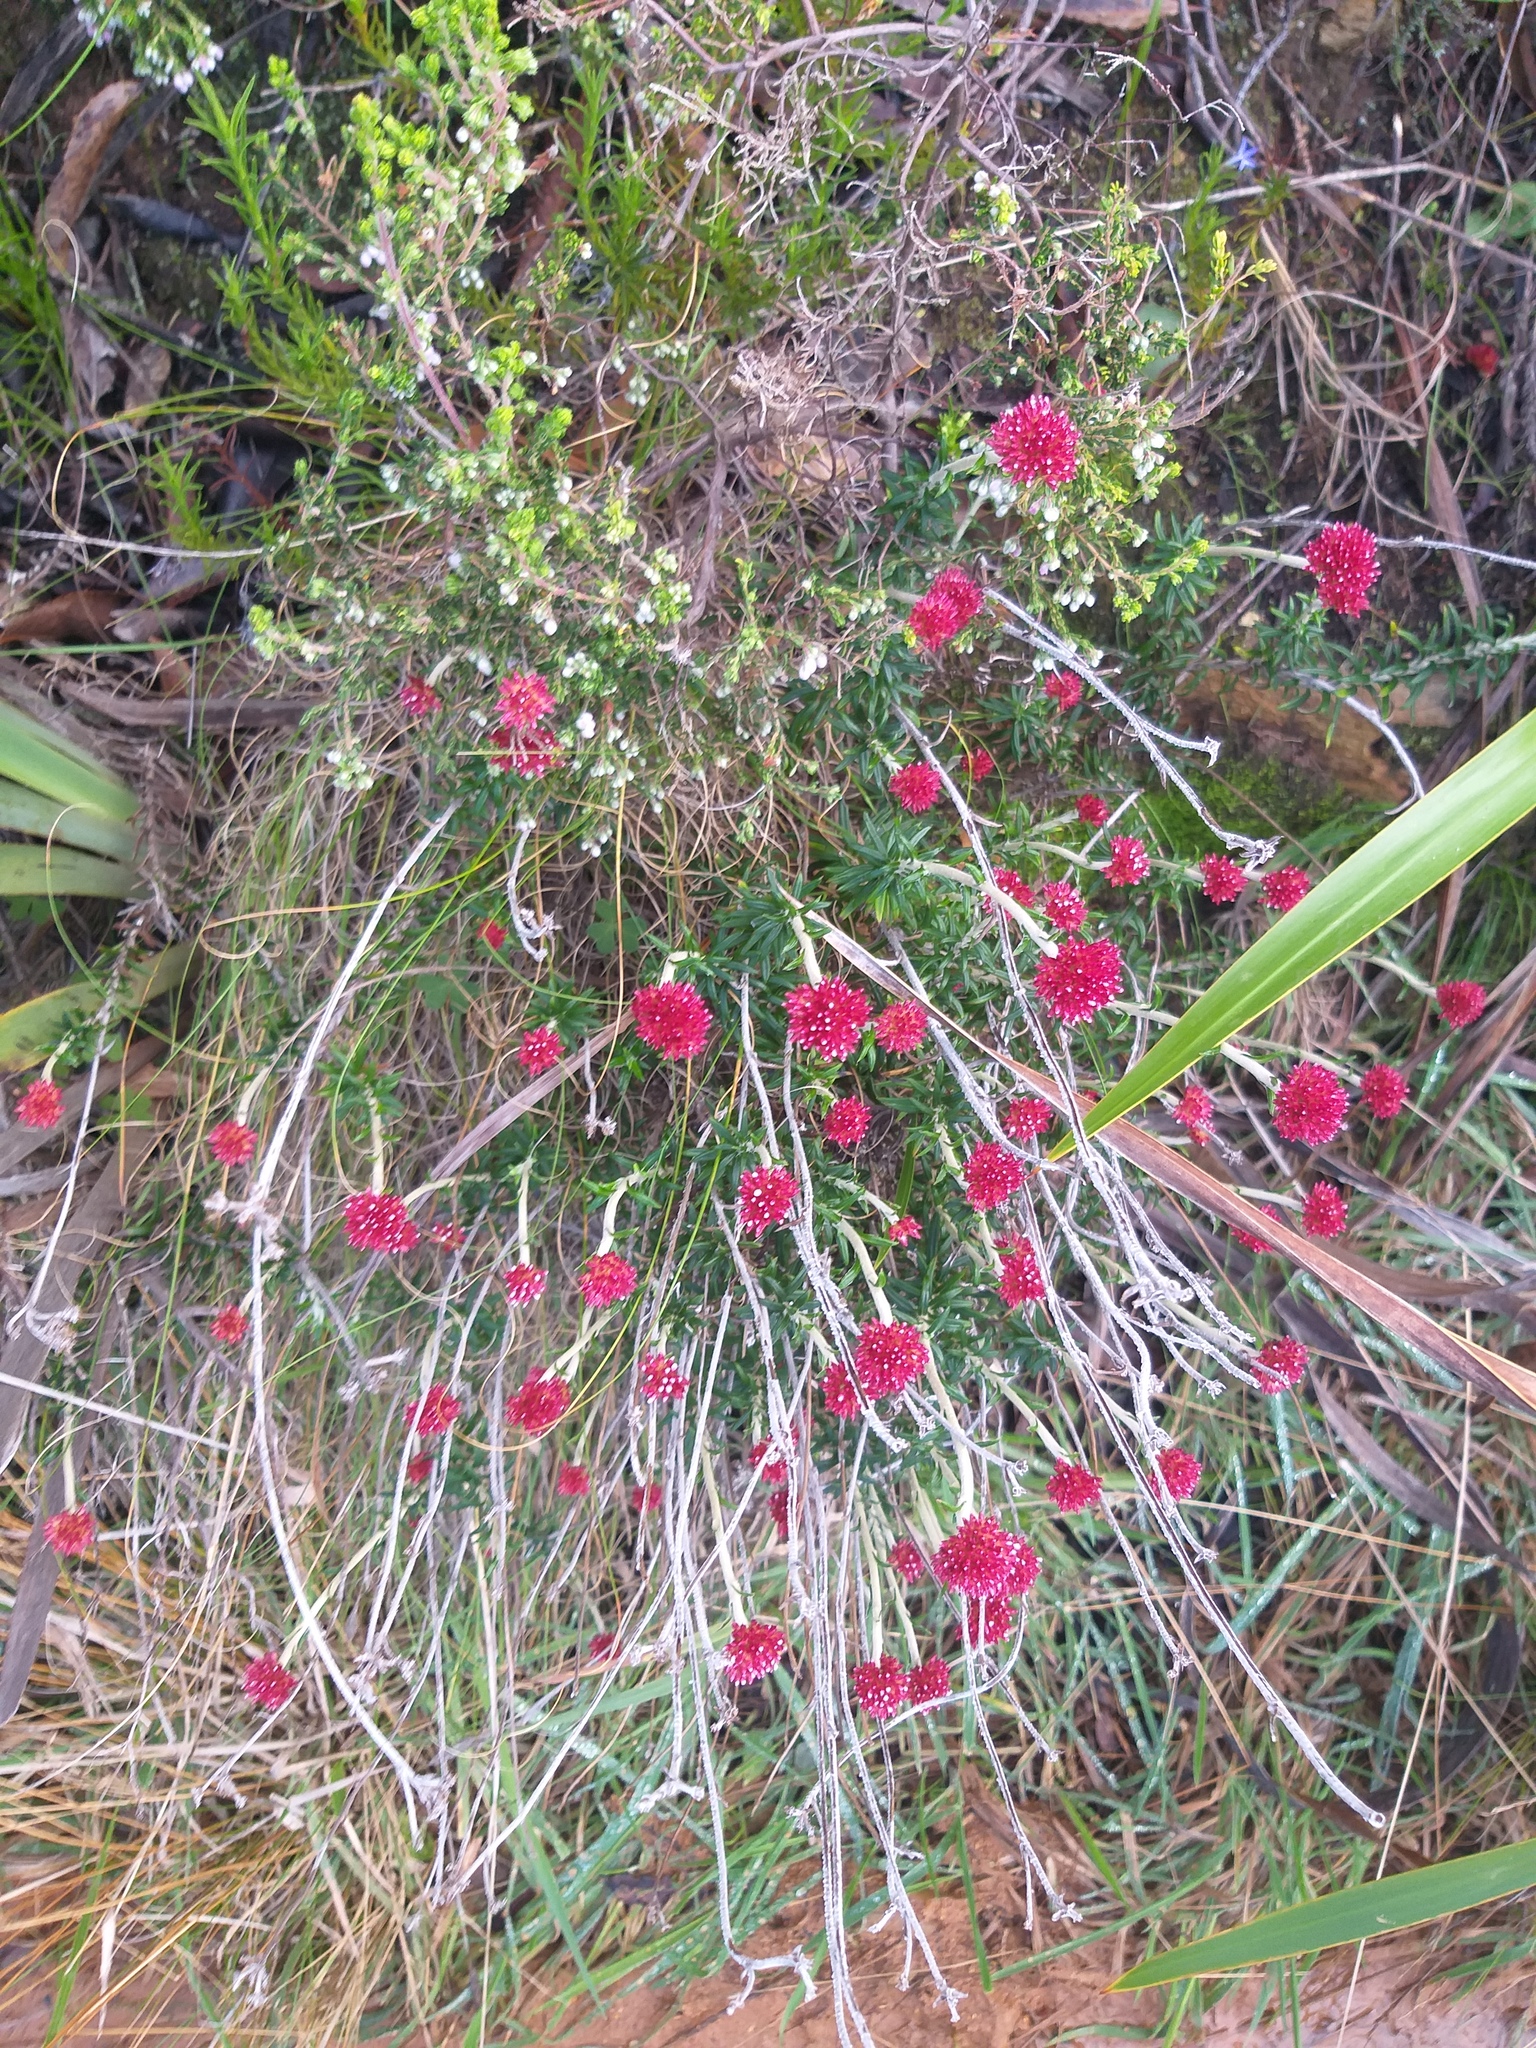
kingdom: Plantae
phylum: Tracheophyta
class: Magnoliopsida
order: Asterales
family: Asteraceae
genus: Anaxeton
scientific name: Anaxeton arborescens
